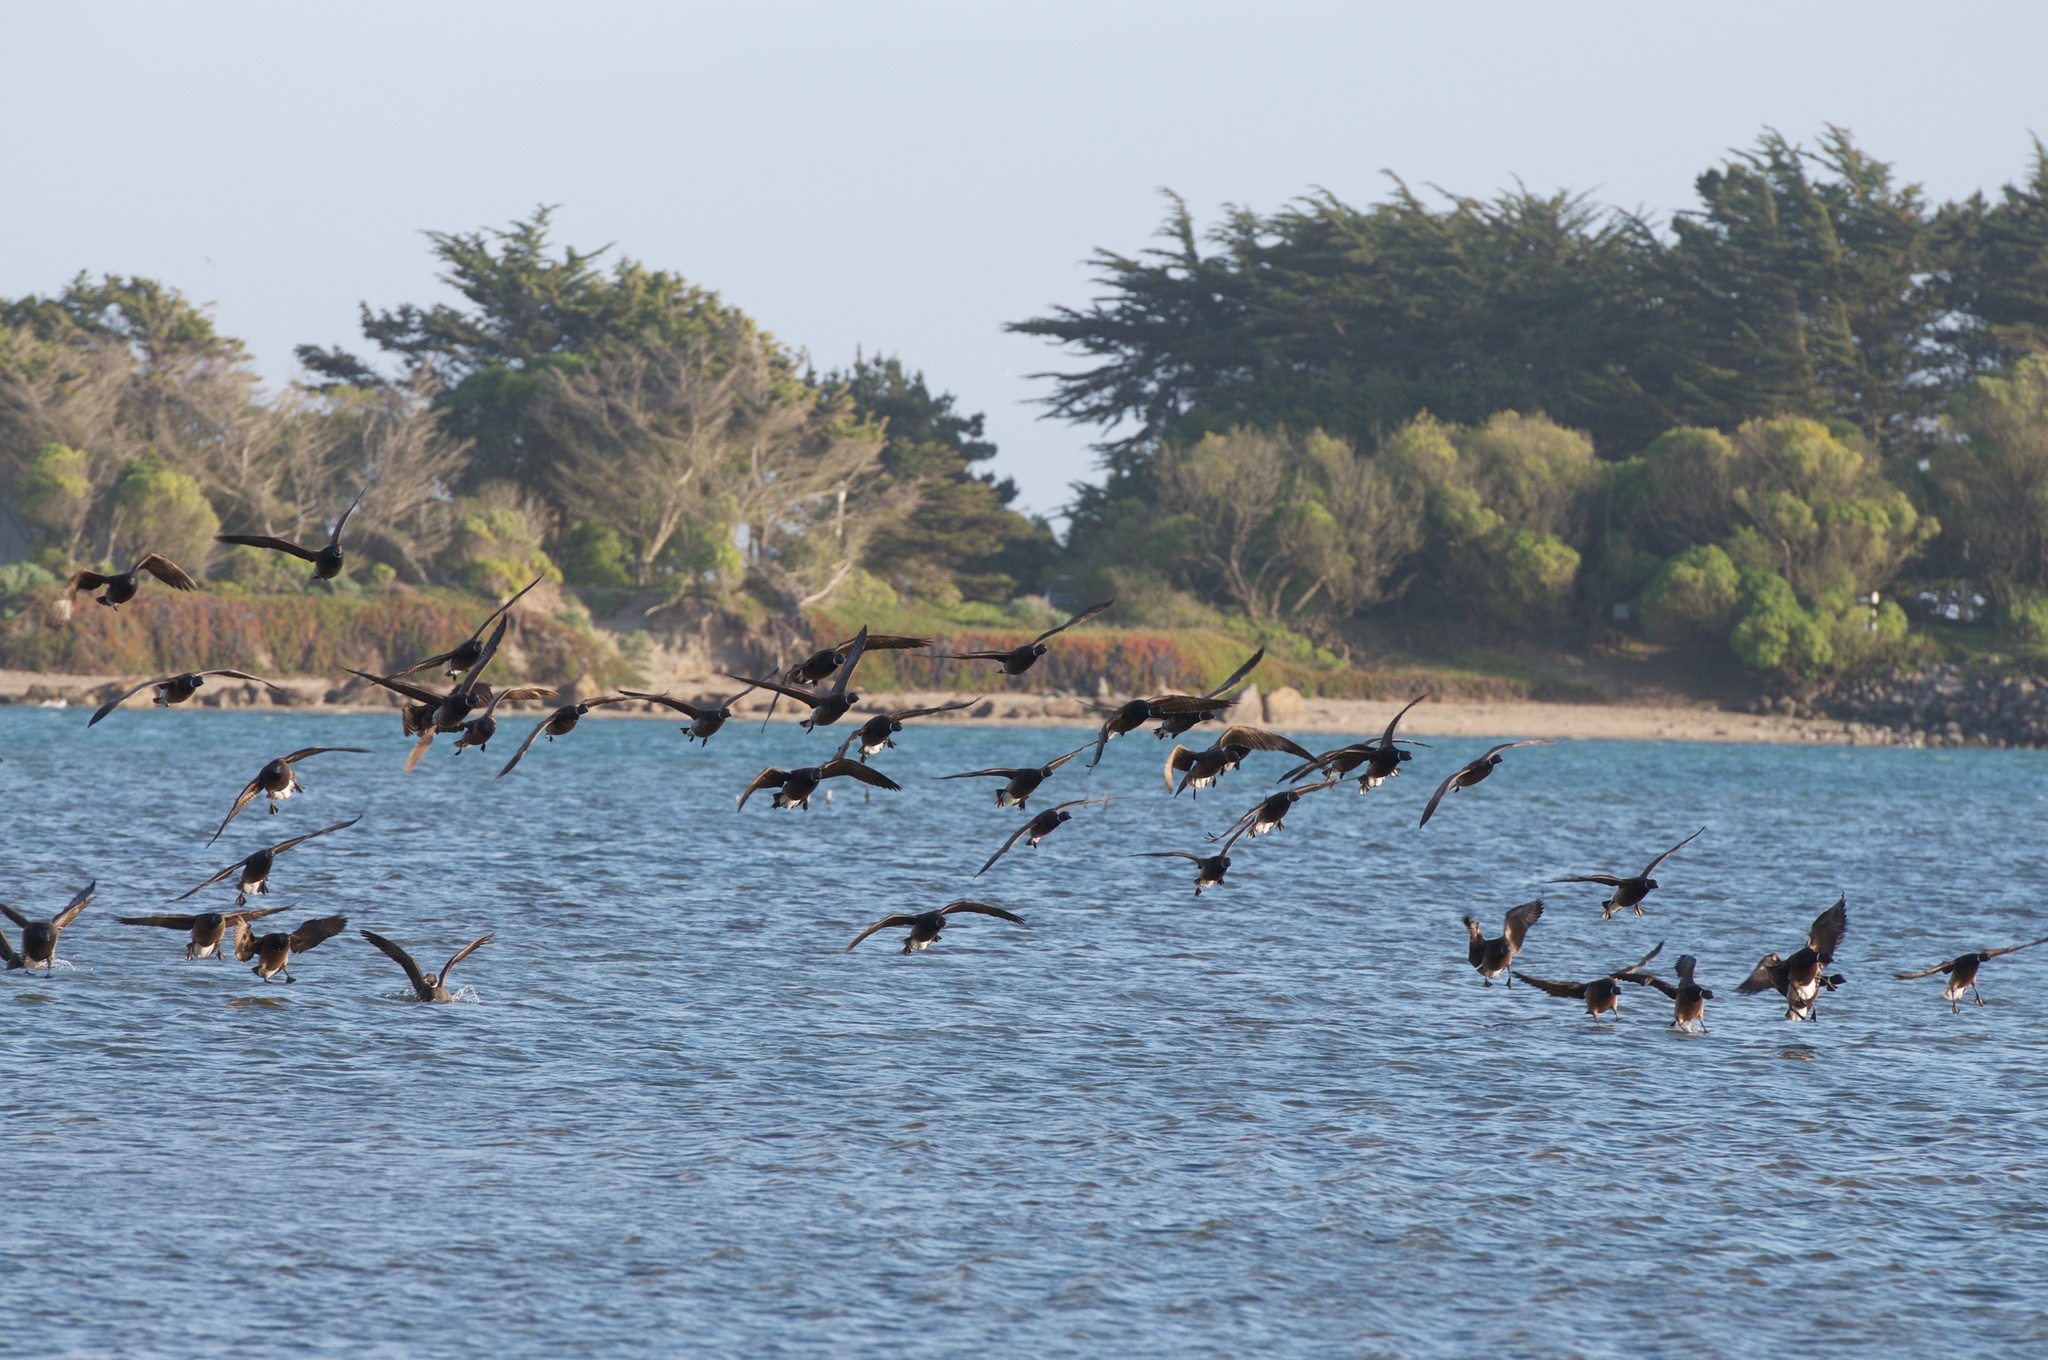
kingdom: Animalia
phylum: Chordata
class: Aves
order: Anseriformes
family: Anatidae
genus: Branta
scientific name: Branta bernicla
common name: Brant goose
